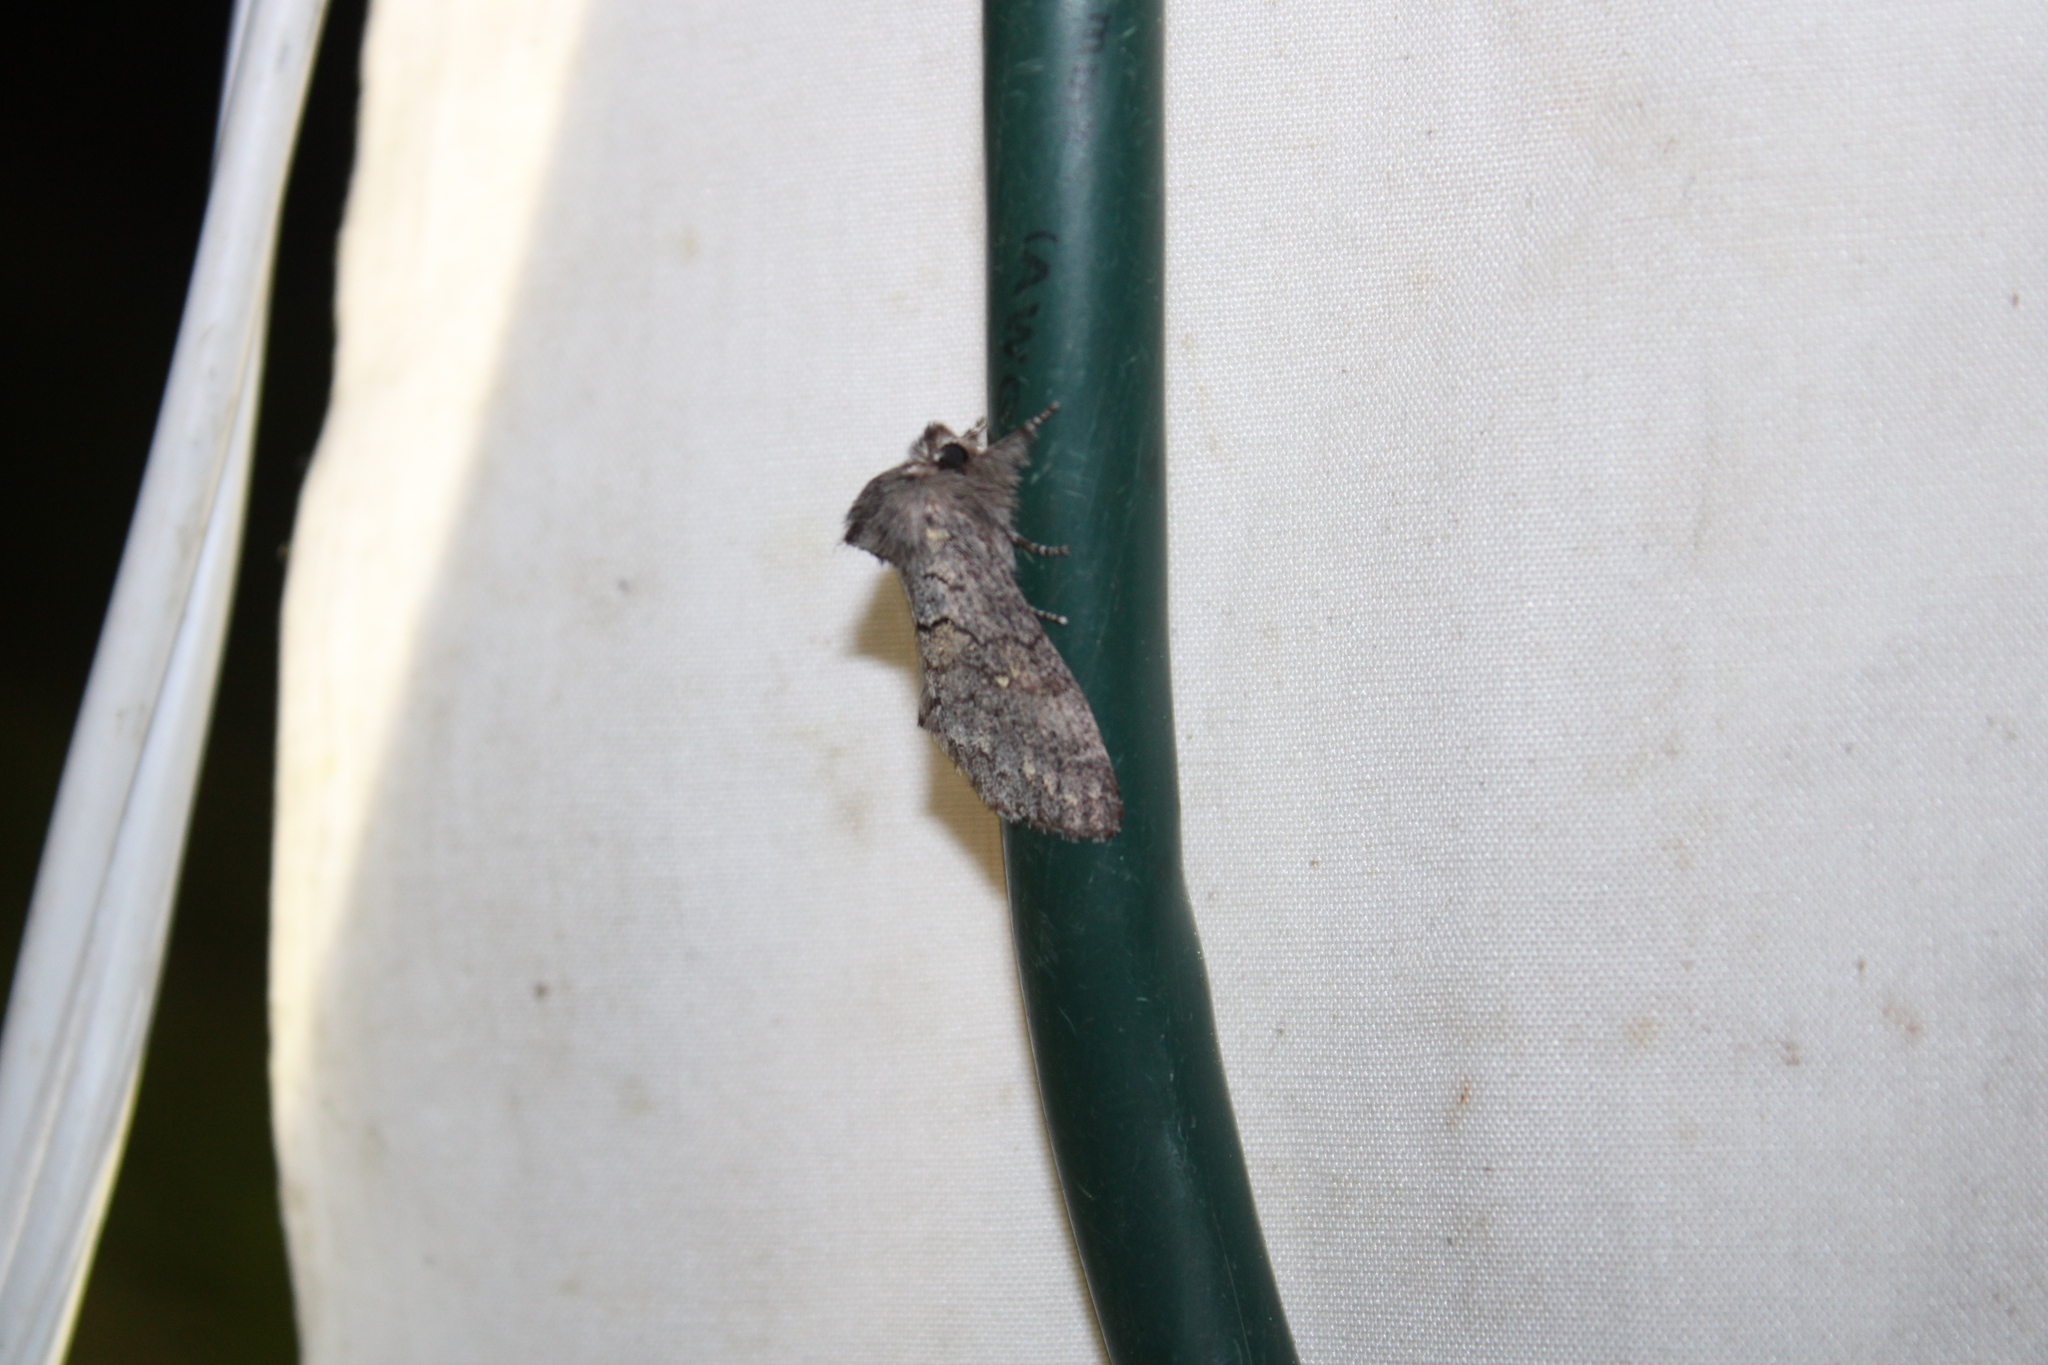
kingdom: Animalia
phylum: Arthropoda
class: Insecta
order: Lepidoptera
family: Notodontidae
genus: Gluphisia
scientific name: Gluphisia avimacula
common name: Four-spotted gluphisia moth
